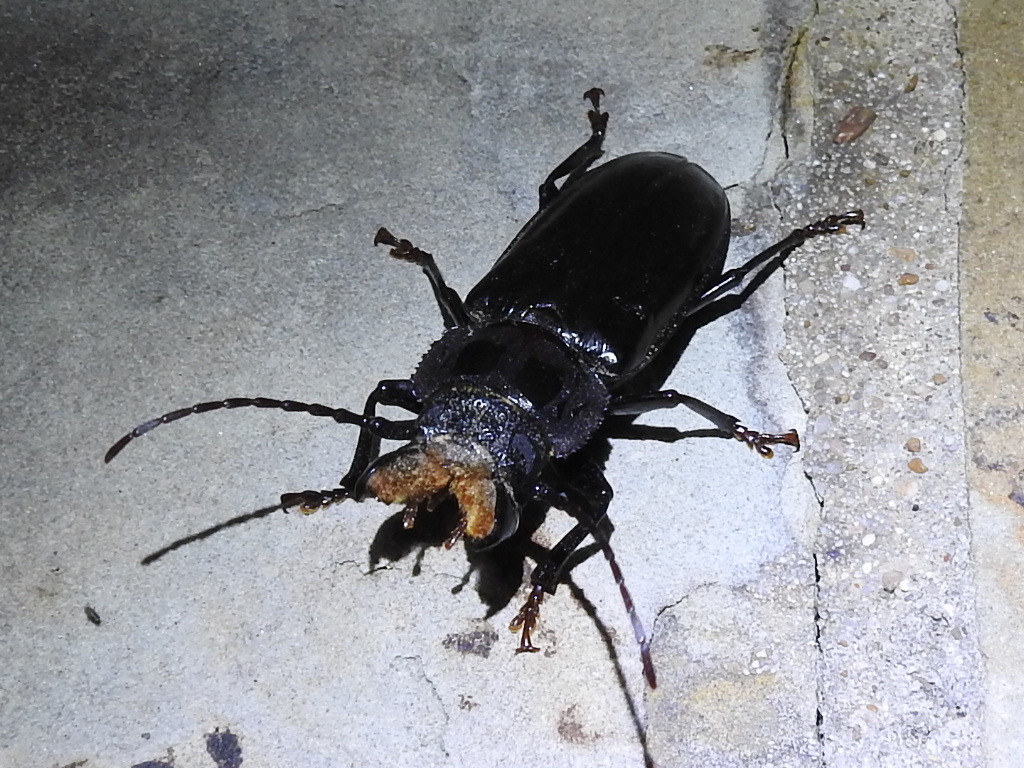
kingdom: Animalia
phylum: Arthropoda
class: Insecta
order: Coleoptera
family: Cerambycidae
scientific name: Cerambycidae
